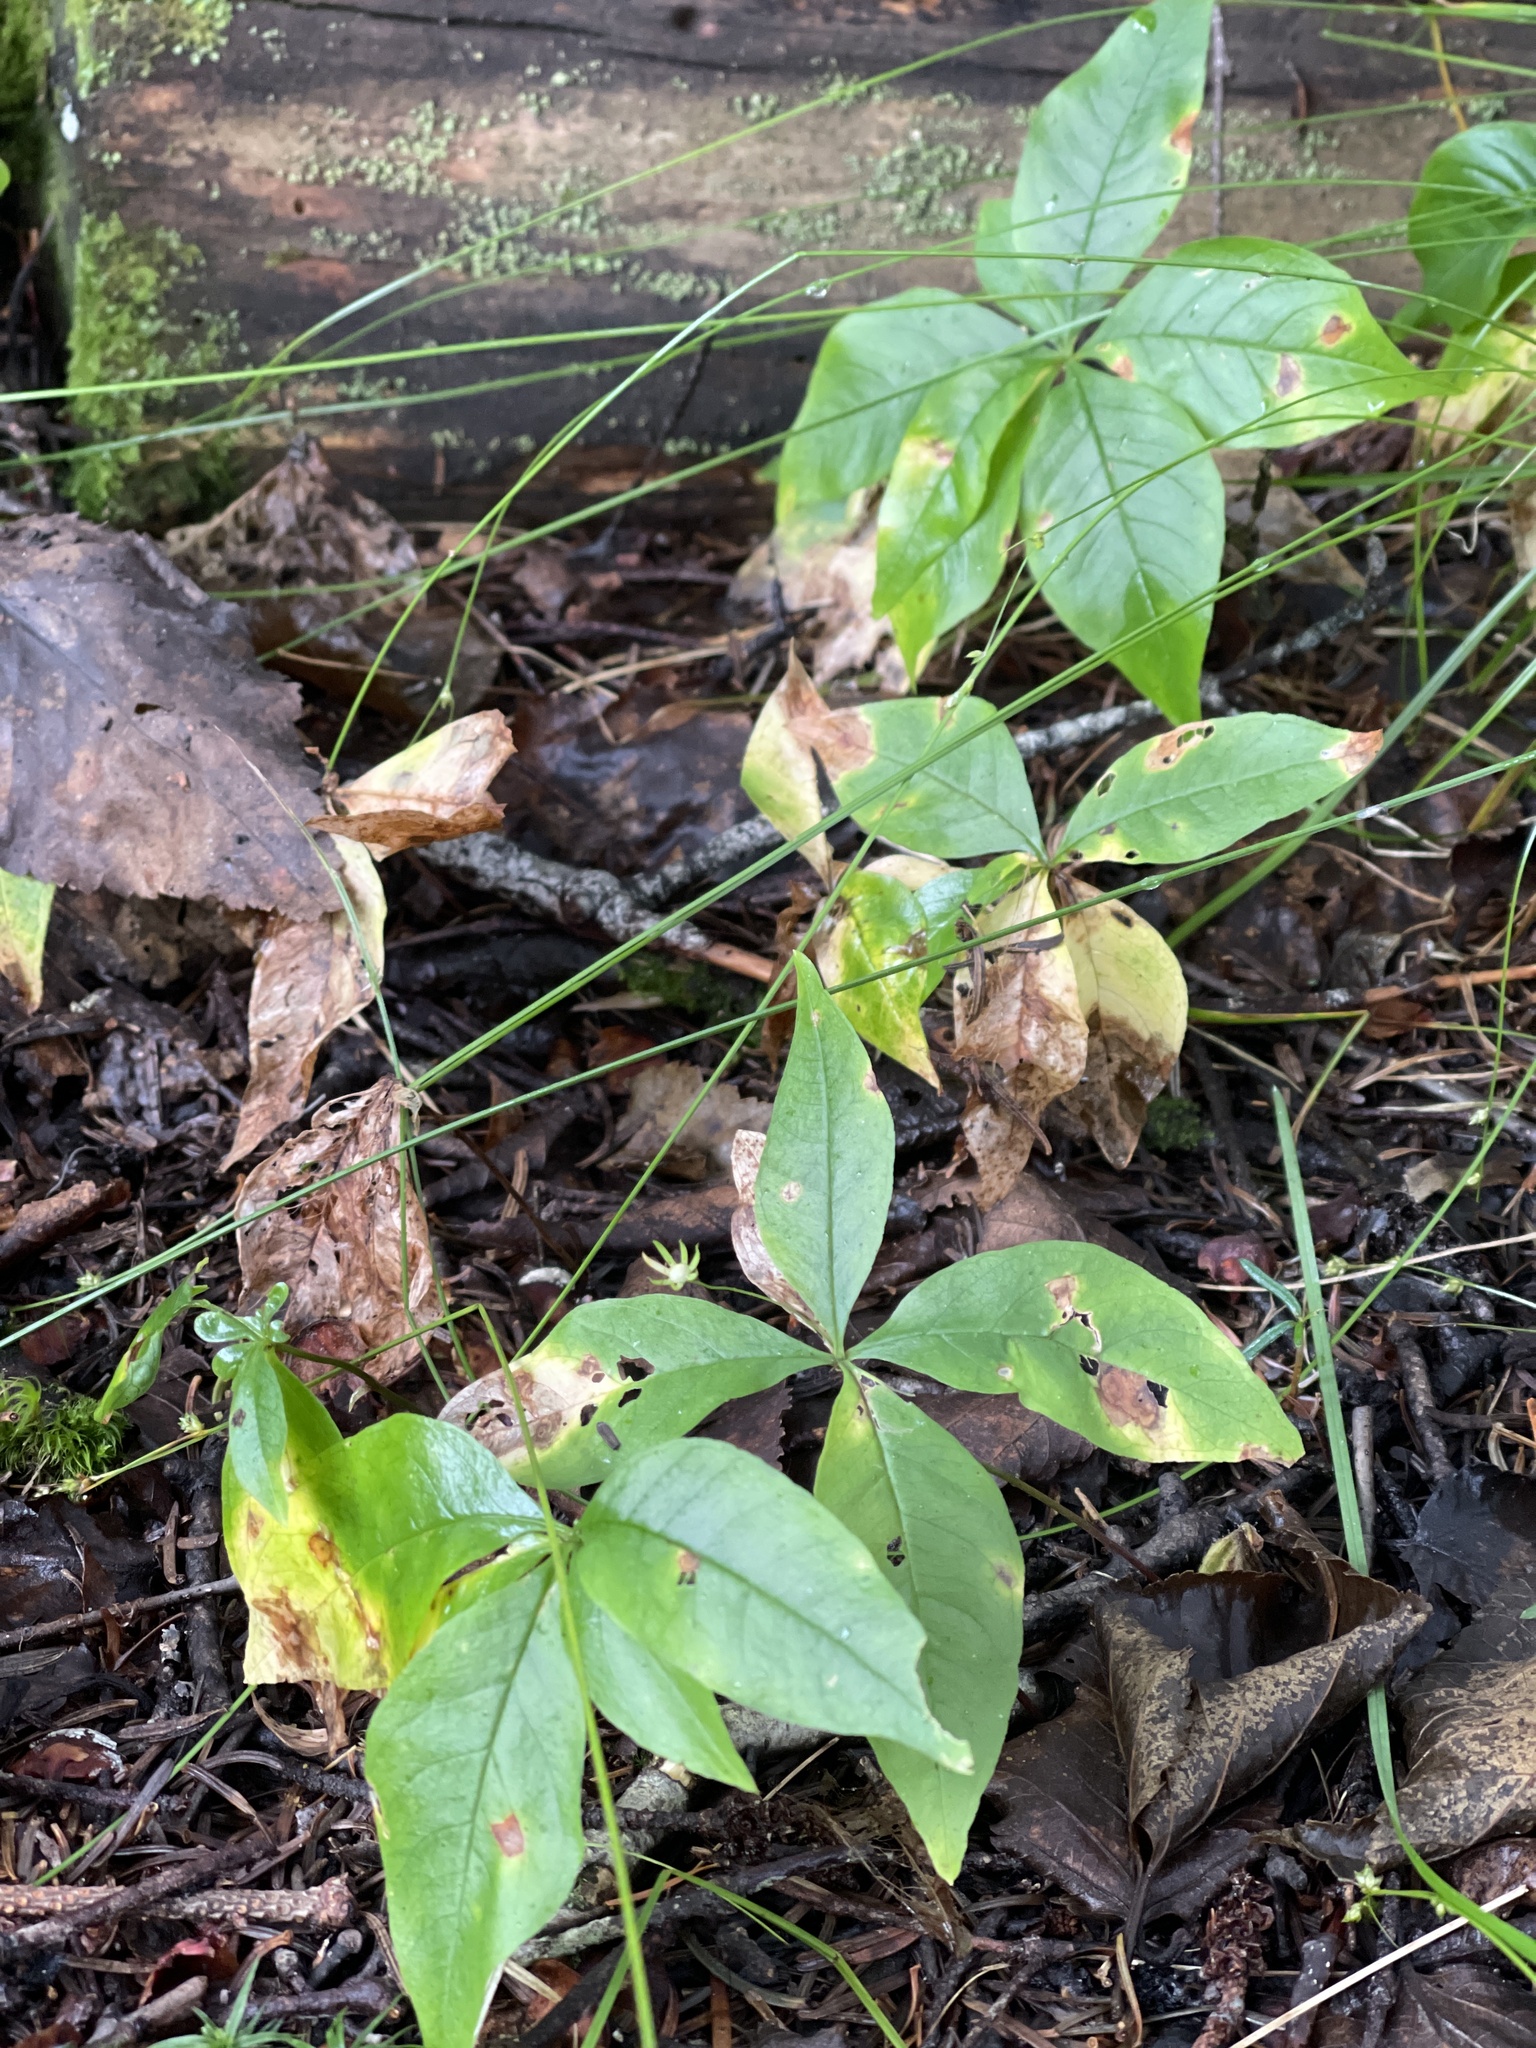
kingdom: Plantae
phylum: Tracheophyta
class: Magnoliopsida
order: Ericales
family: Primulaceae
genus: Lysimachia
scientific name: Lysimachia borealis
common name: American starflower
